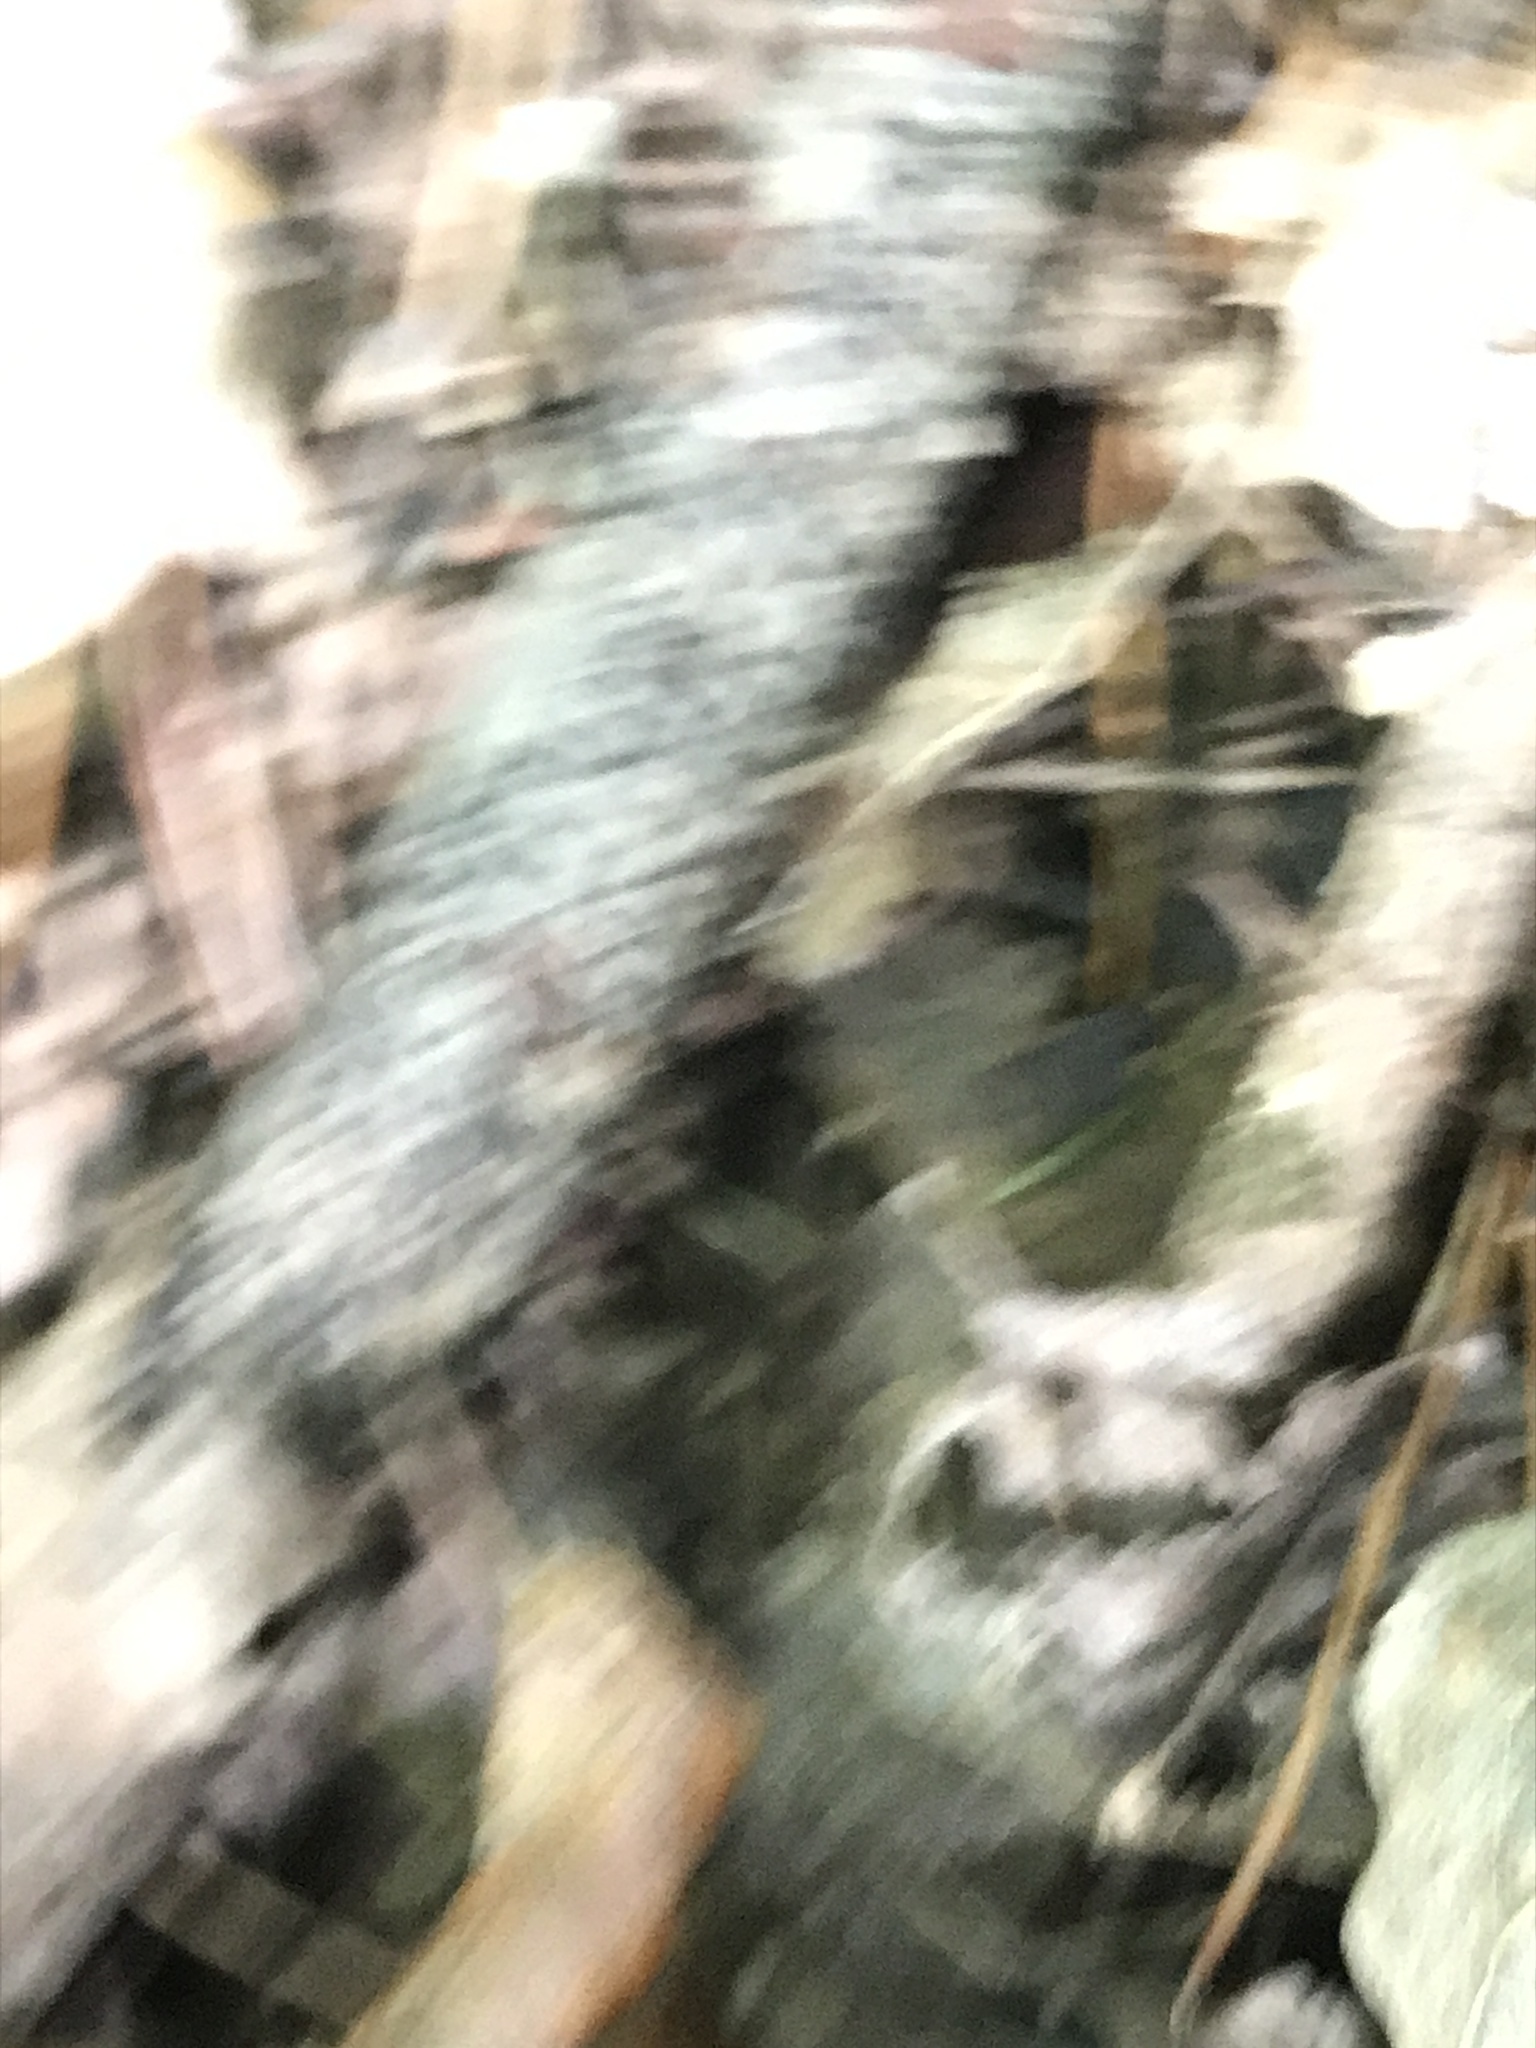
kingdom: Fungi
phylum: Ascomycota
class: Sordariomycetes
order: Xylariales
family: Xylariaceae
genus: Rosellinia
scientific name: Rosellinia corticium
